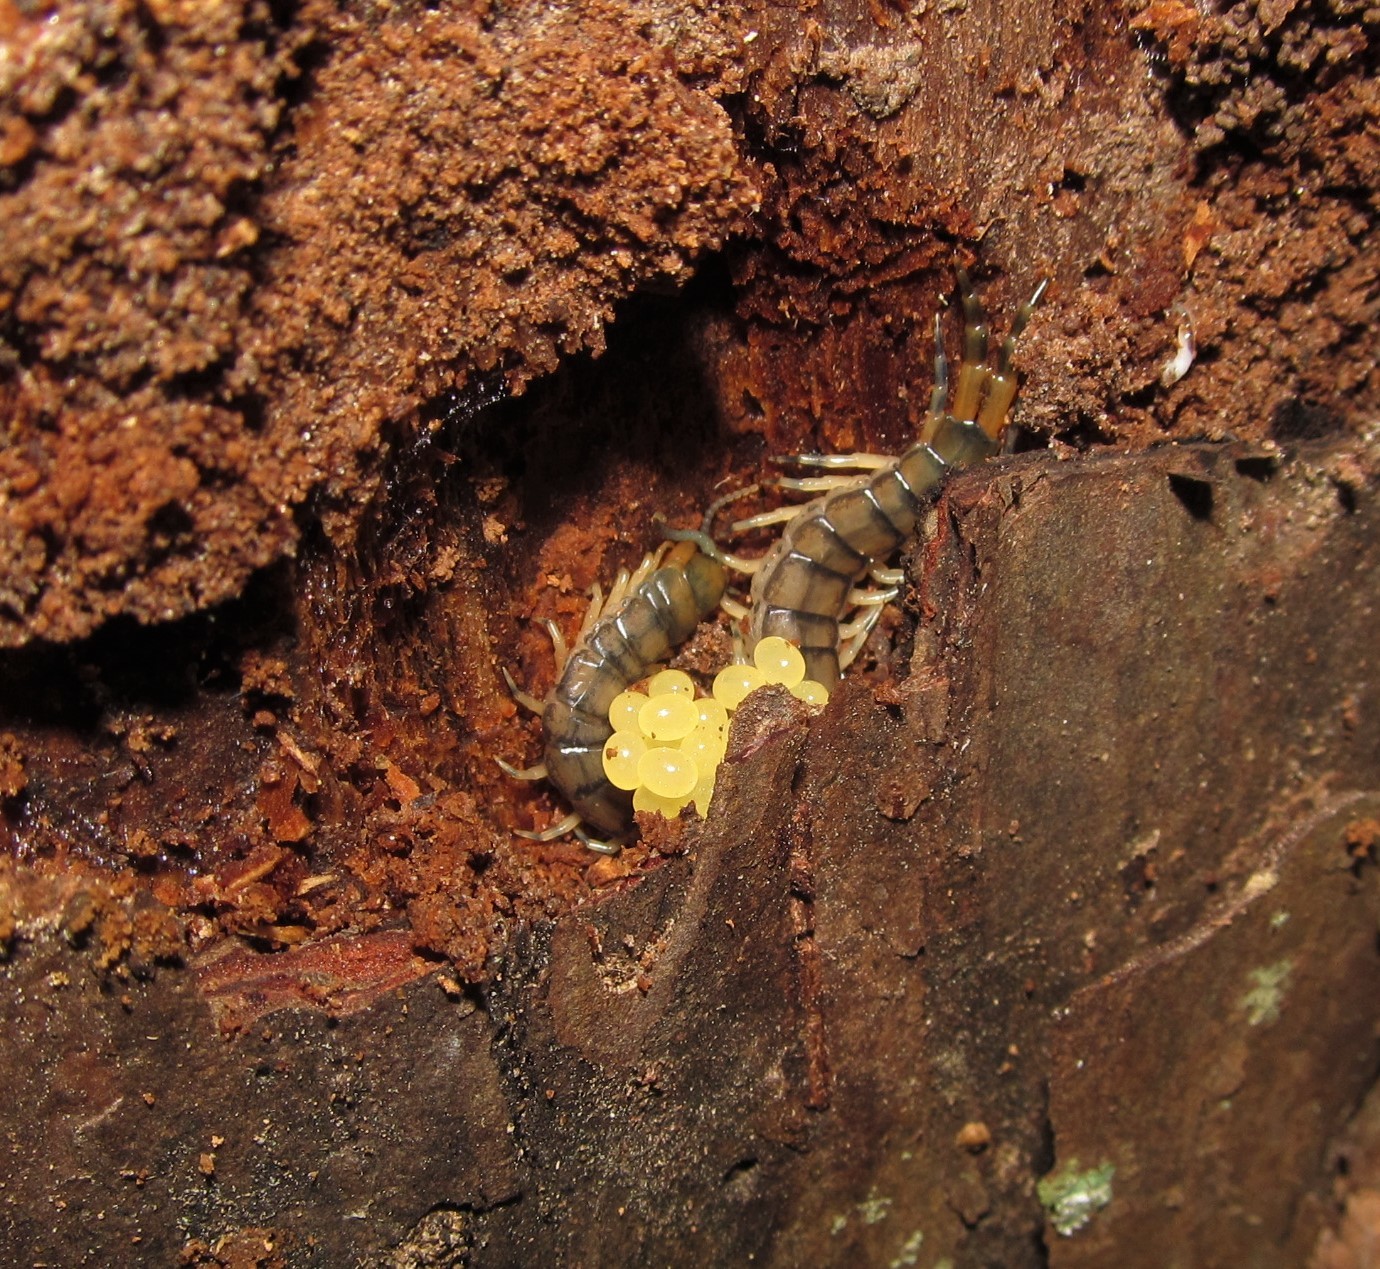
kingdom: Animalia
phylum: Arthropoda
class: Chilopoda
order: Scolopendromorpha
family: Scolopendridae
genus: Hemiscolopendra
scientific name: Hemiscolopendra marginata
